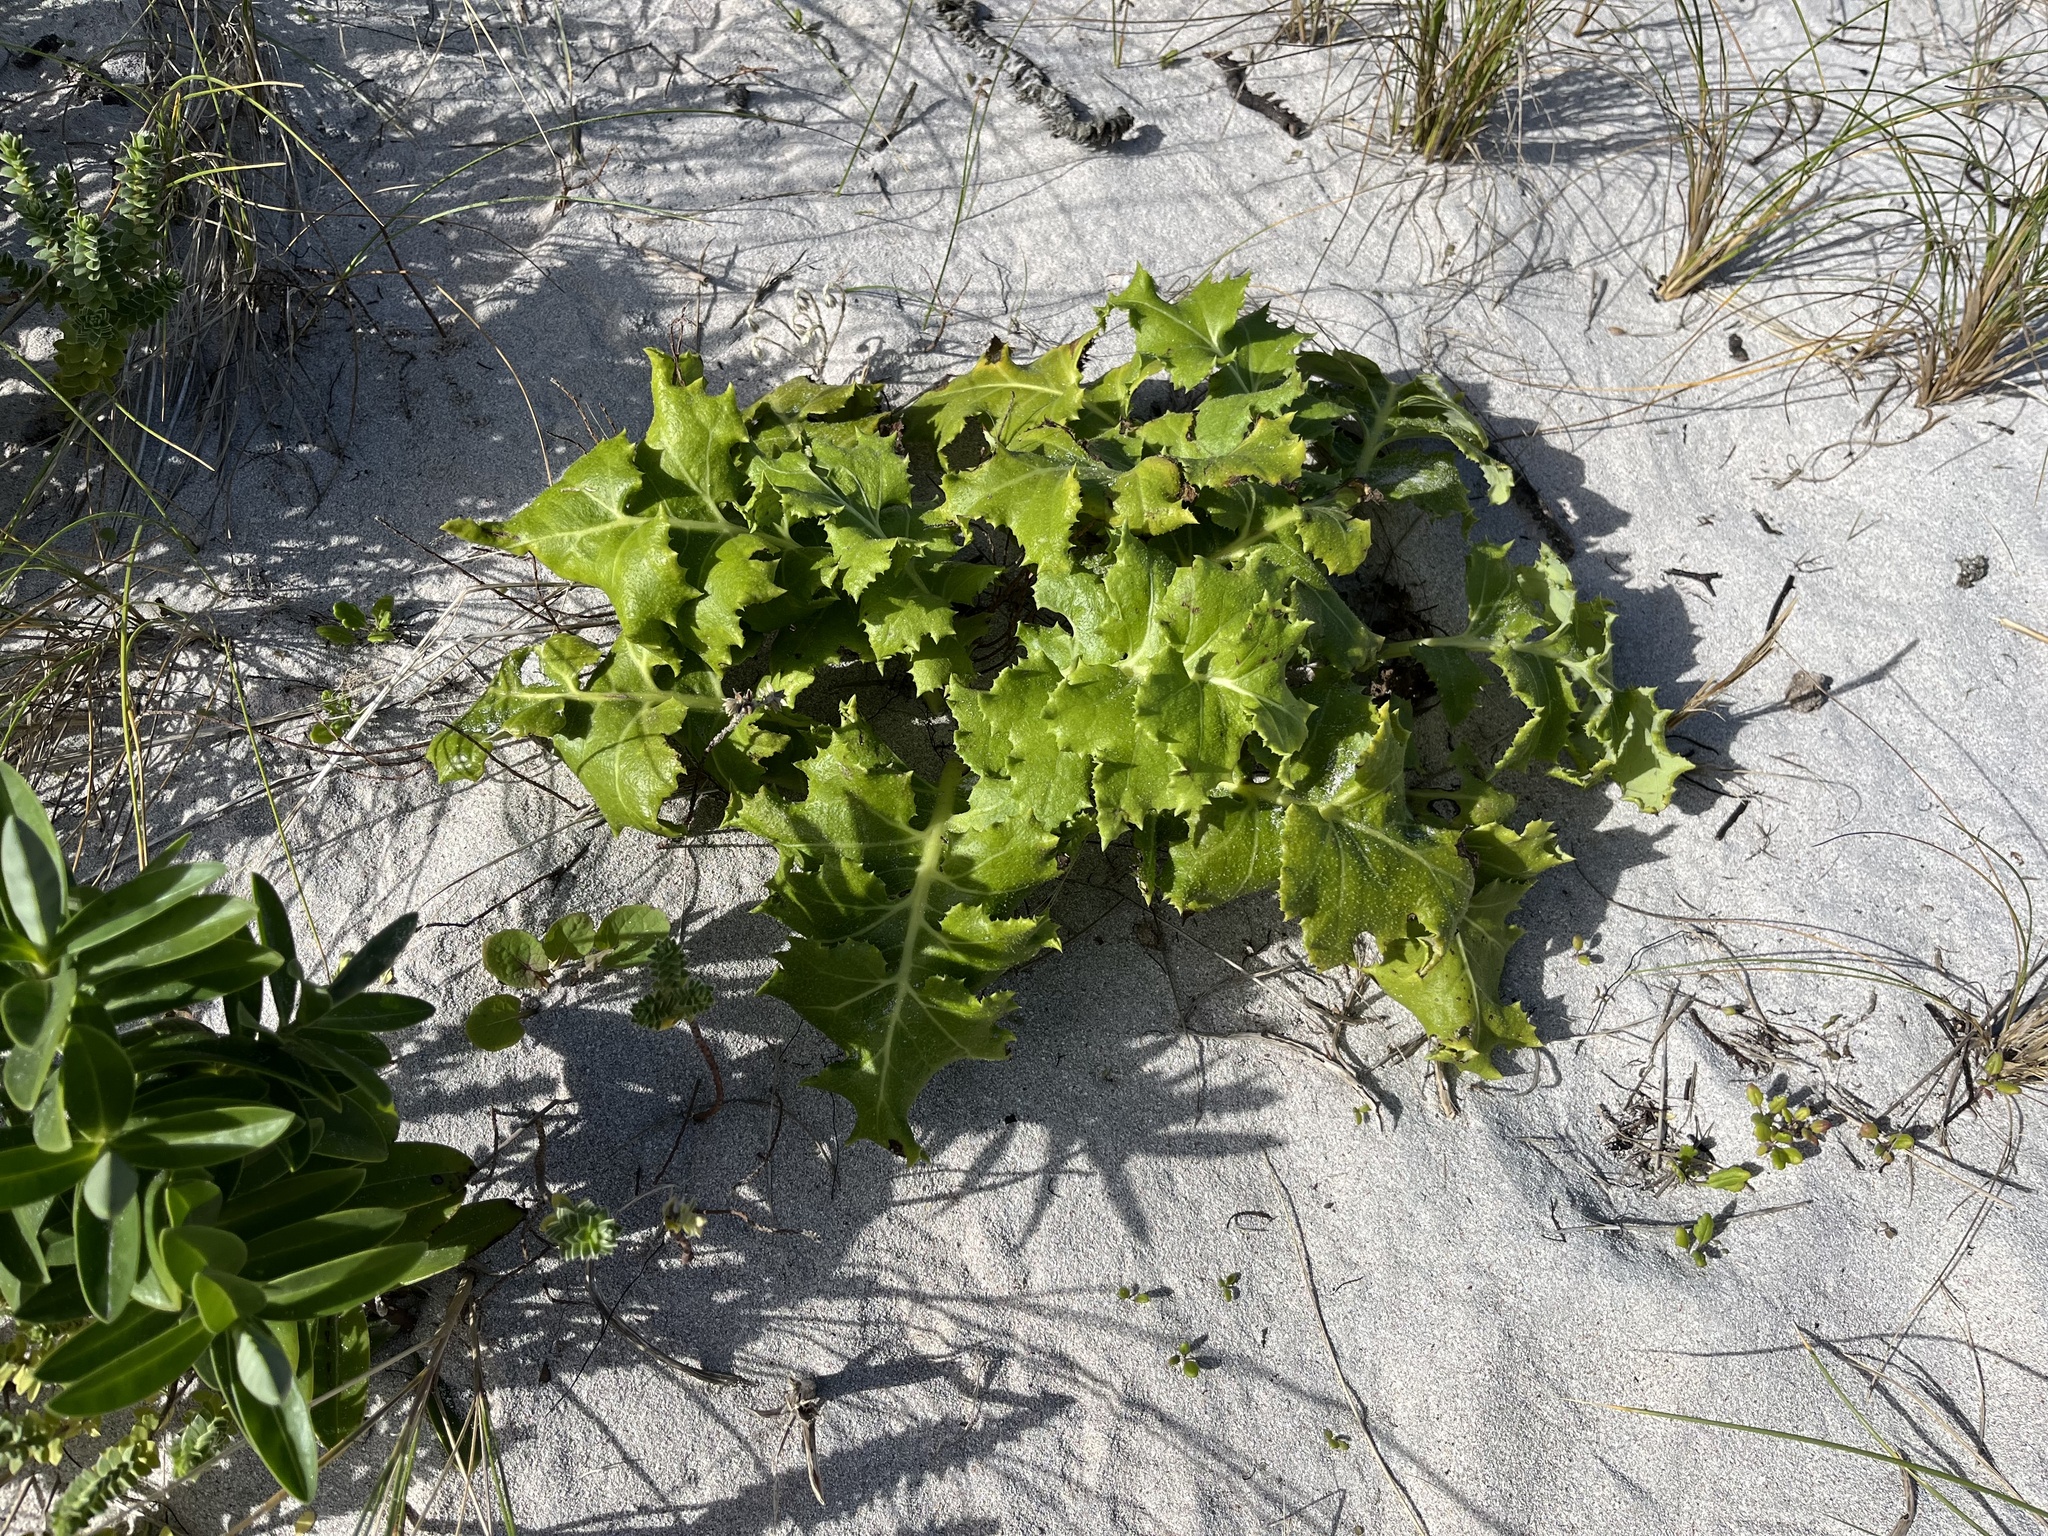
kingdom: Plantae
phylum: Tracheophyta
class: Magnoliopsida
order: Asterales
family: Asteraceae
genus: Sonchus
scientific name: Sonchus grandifolius
